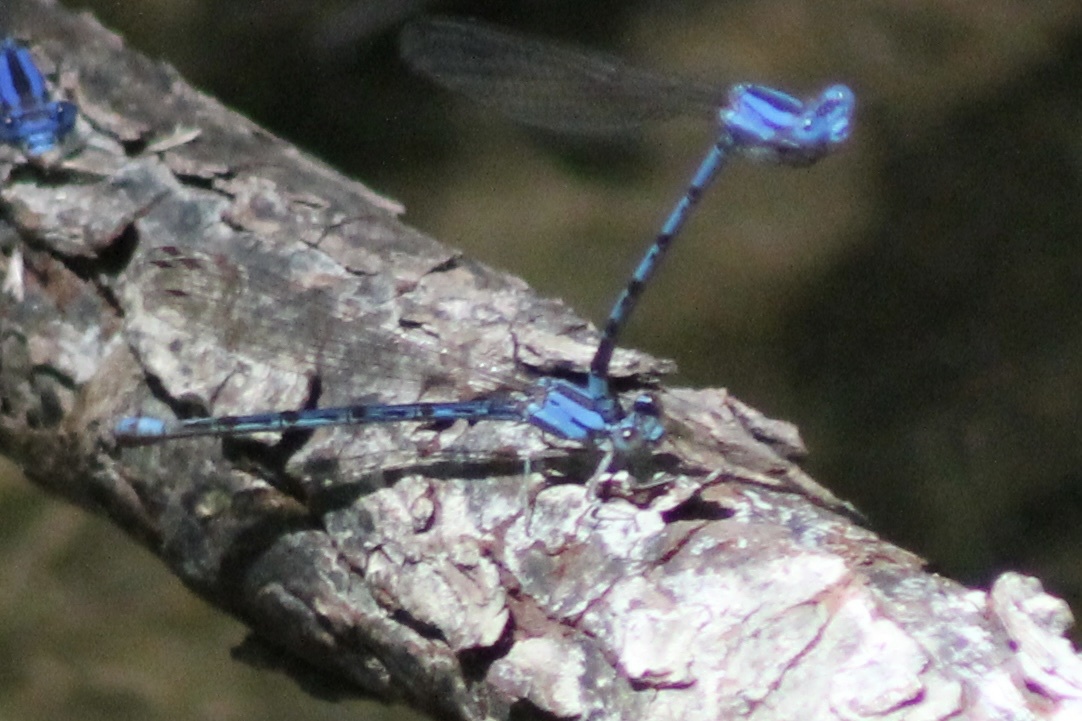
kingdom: Animalia
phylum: Arthropoda
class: Insecta
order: Odonata
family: Coenagrionidae
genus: Argia
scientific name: Argia funebris
